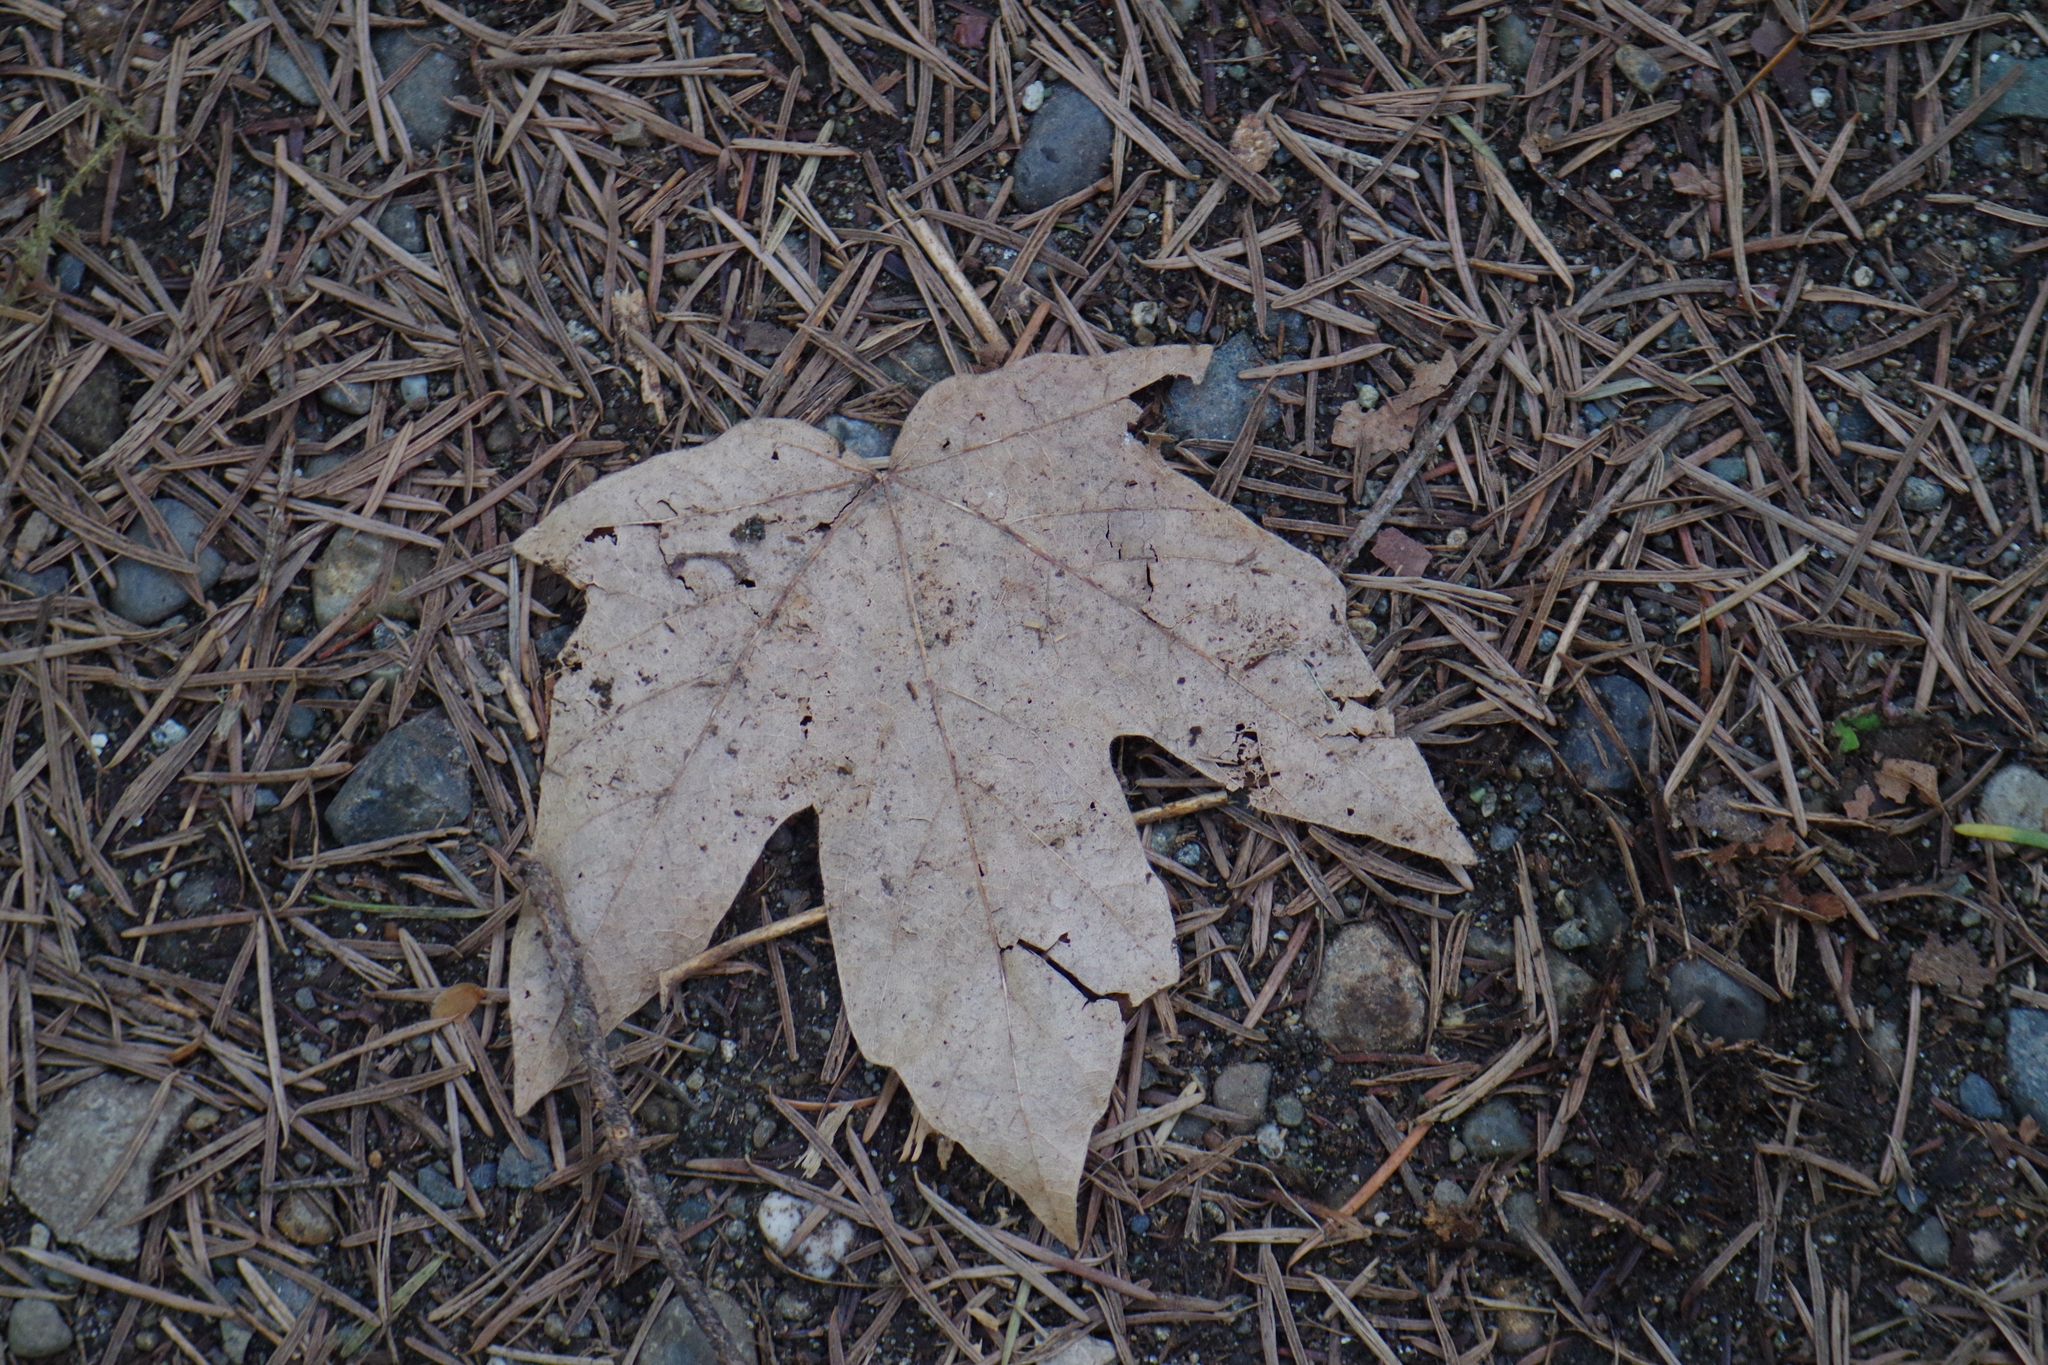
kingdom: Plantae
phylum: Tracheophyta
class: Magnoliopsida
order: Sapindales
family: Sapindaceae
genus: Acer
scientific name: Acer macrophyllum
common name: Oregon maple
